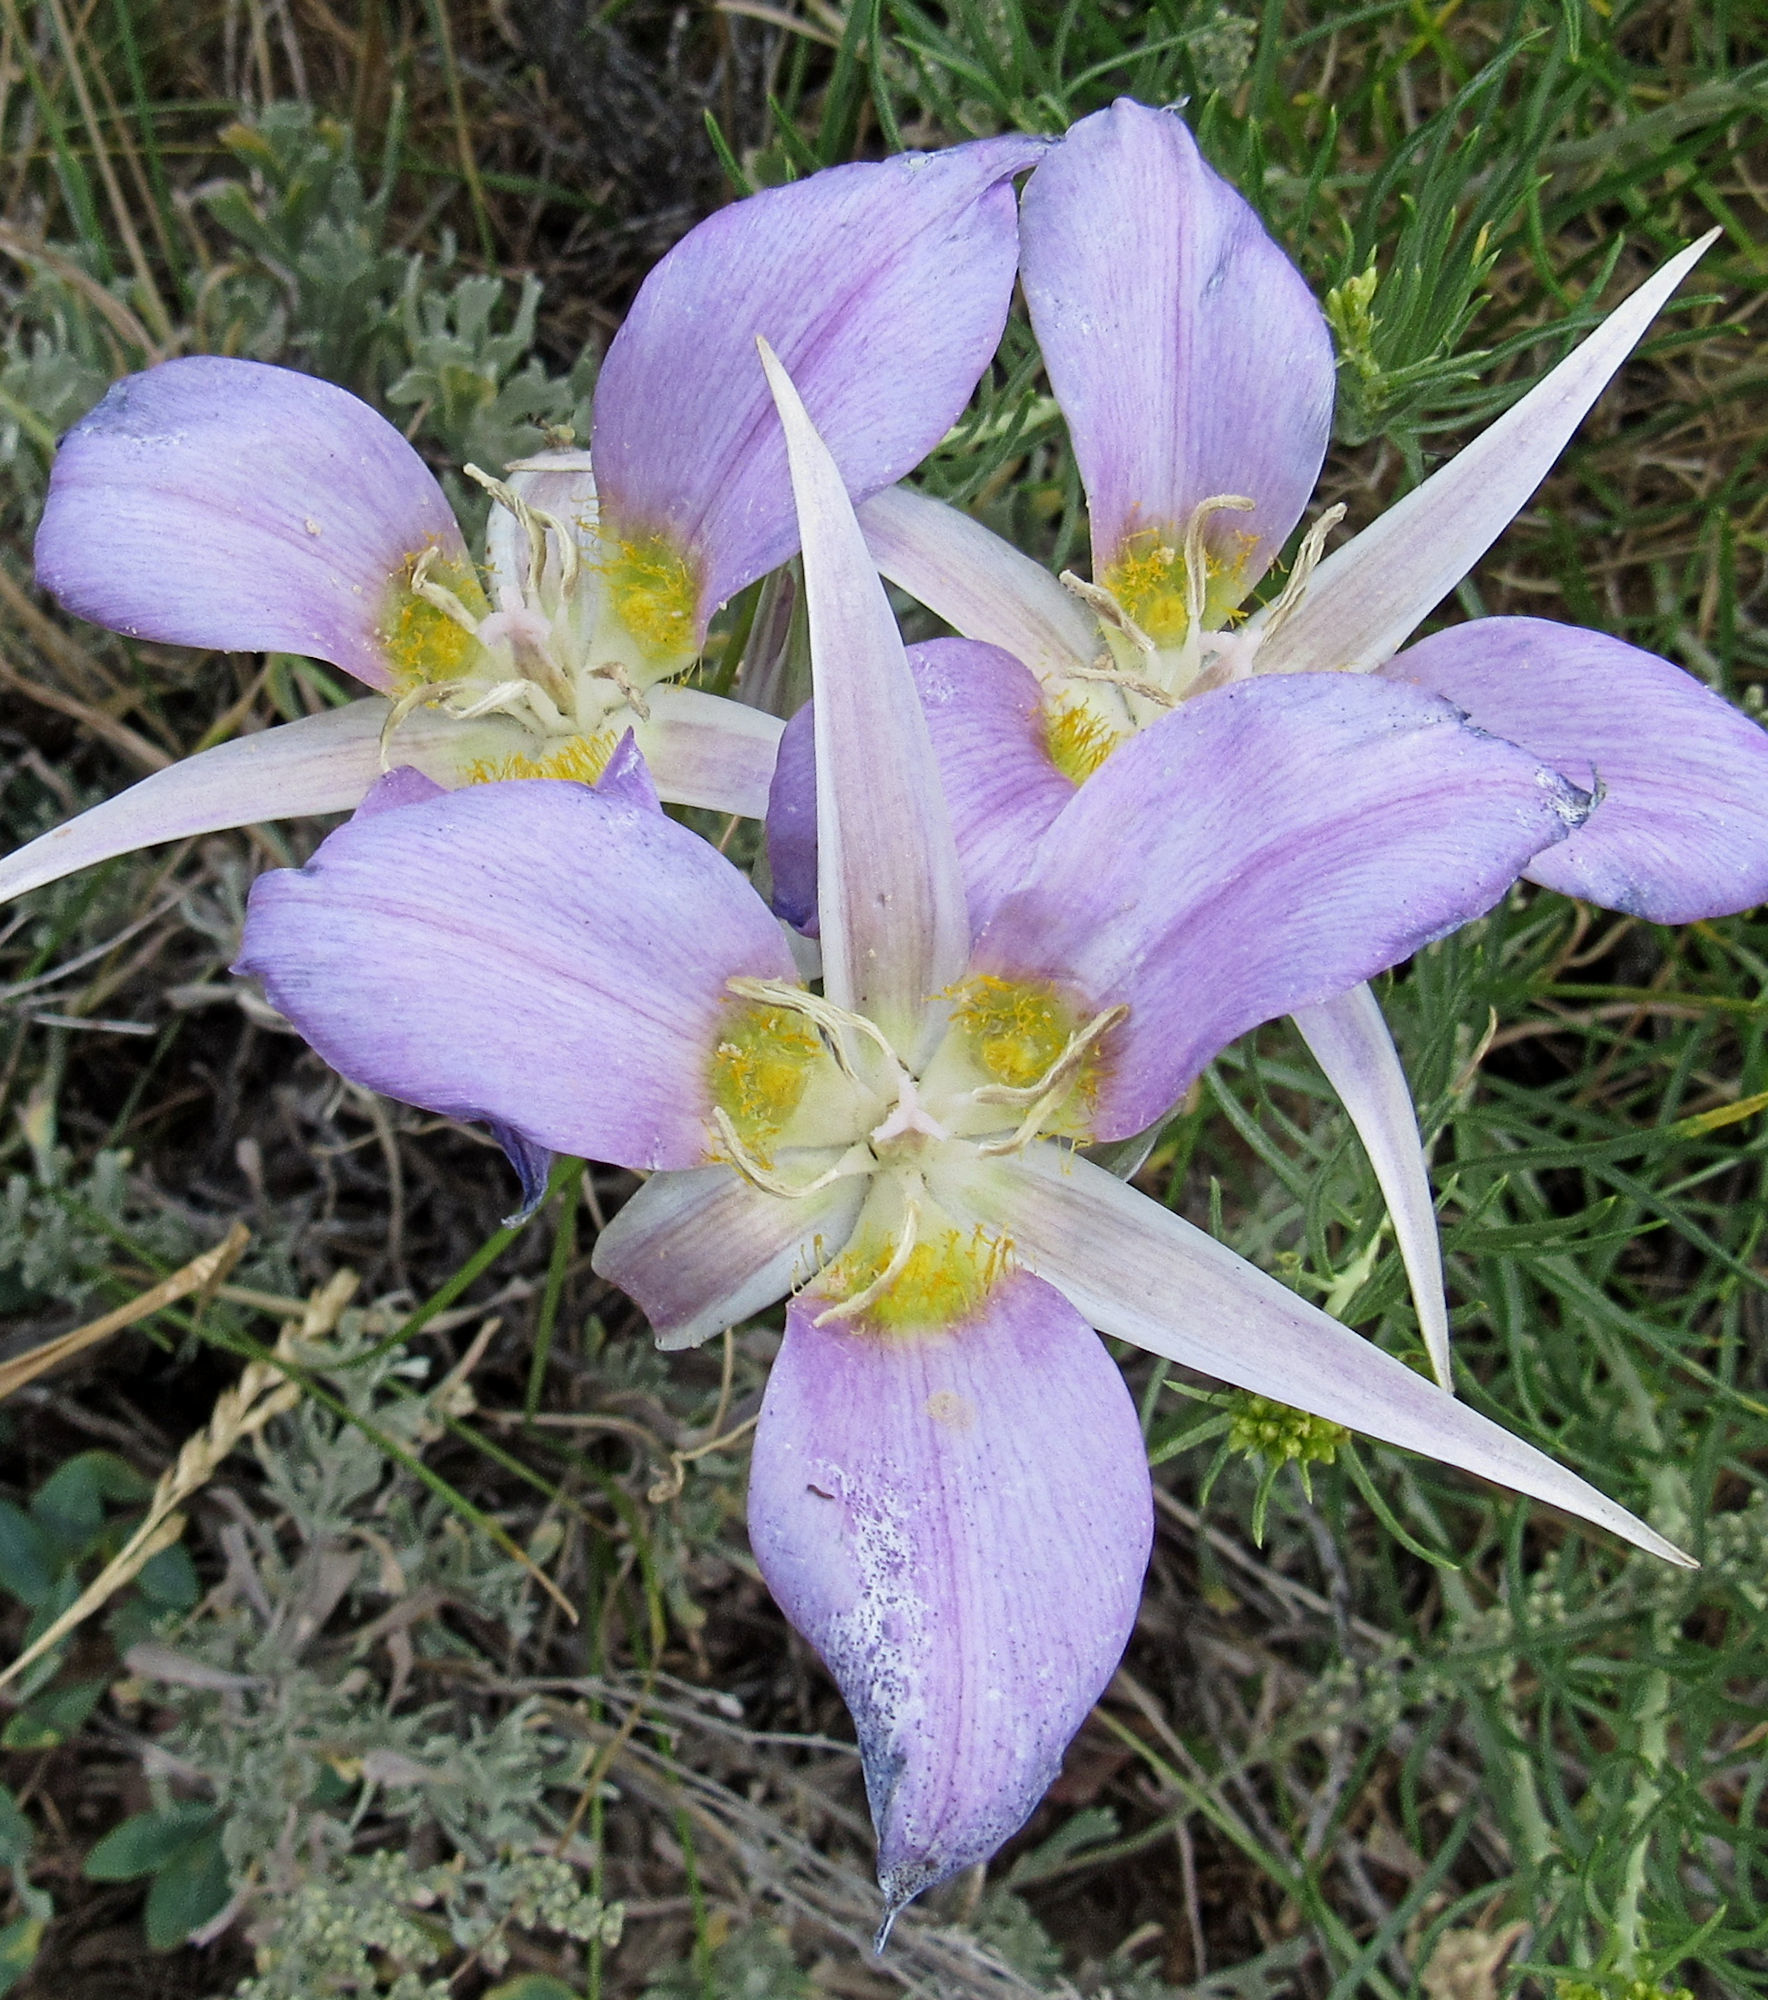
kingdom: Plantae
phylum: Tracheophyta
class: Liliopsida
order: Liliales
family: Liliaceae
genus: Calochortus
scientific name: Calochortus macrocarpus
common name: Green-band mariposa lily
